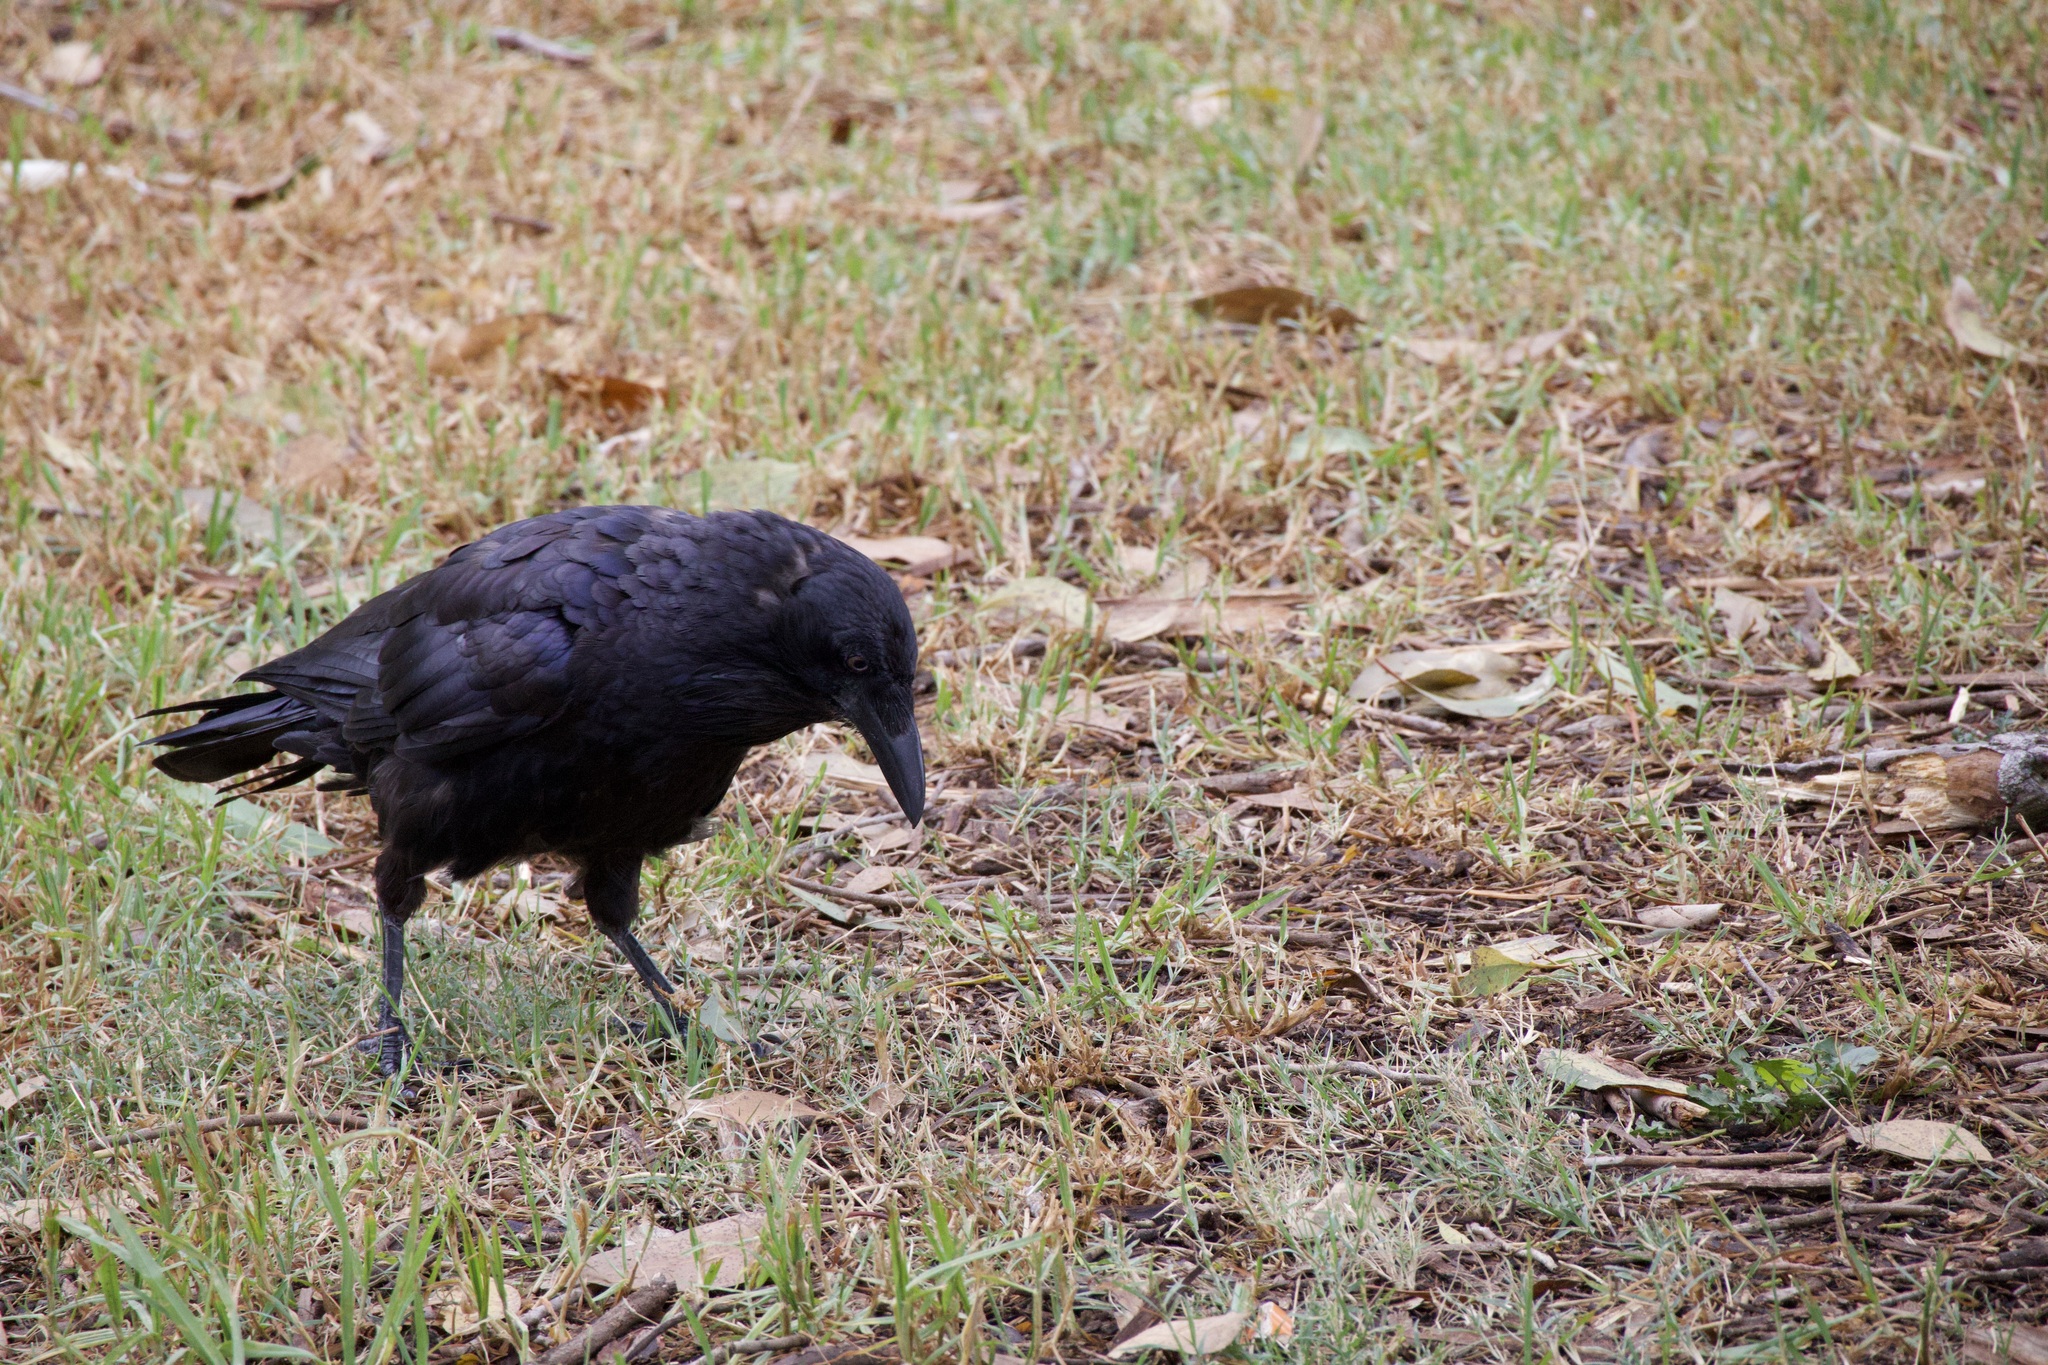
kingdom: Animalia
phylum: Chordata
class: Aves
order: Passeriformes
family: Corvidae
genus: Corvus
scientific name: Corvus coronoides
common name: Australian raven
